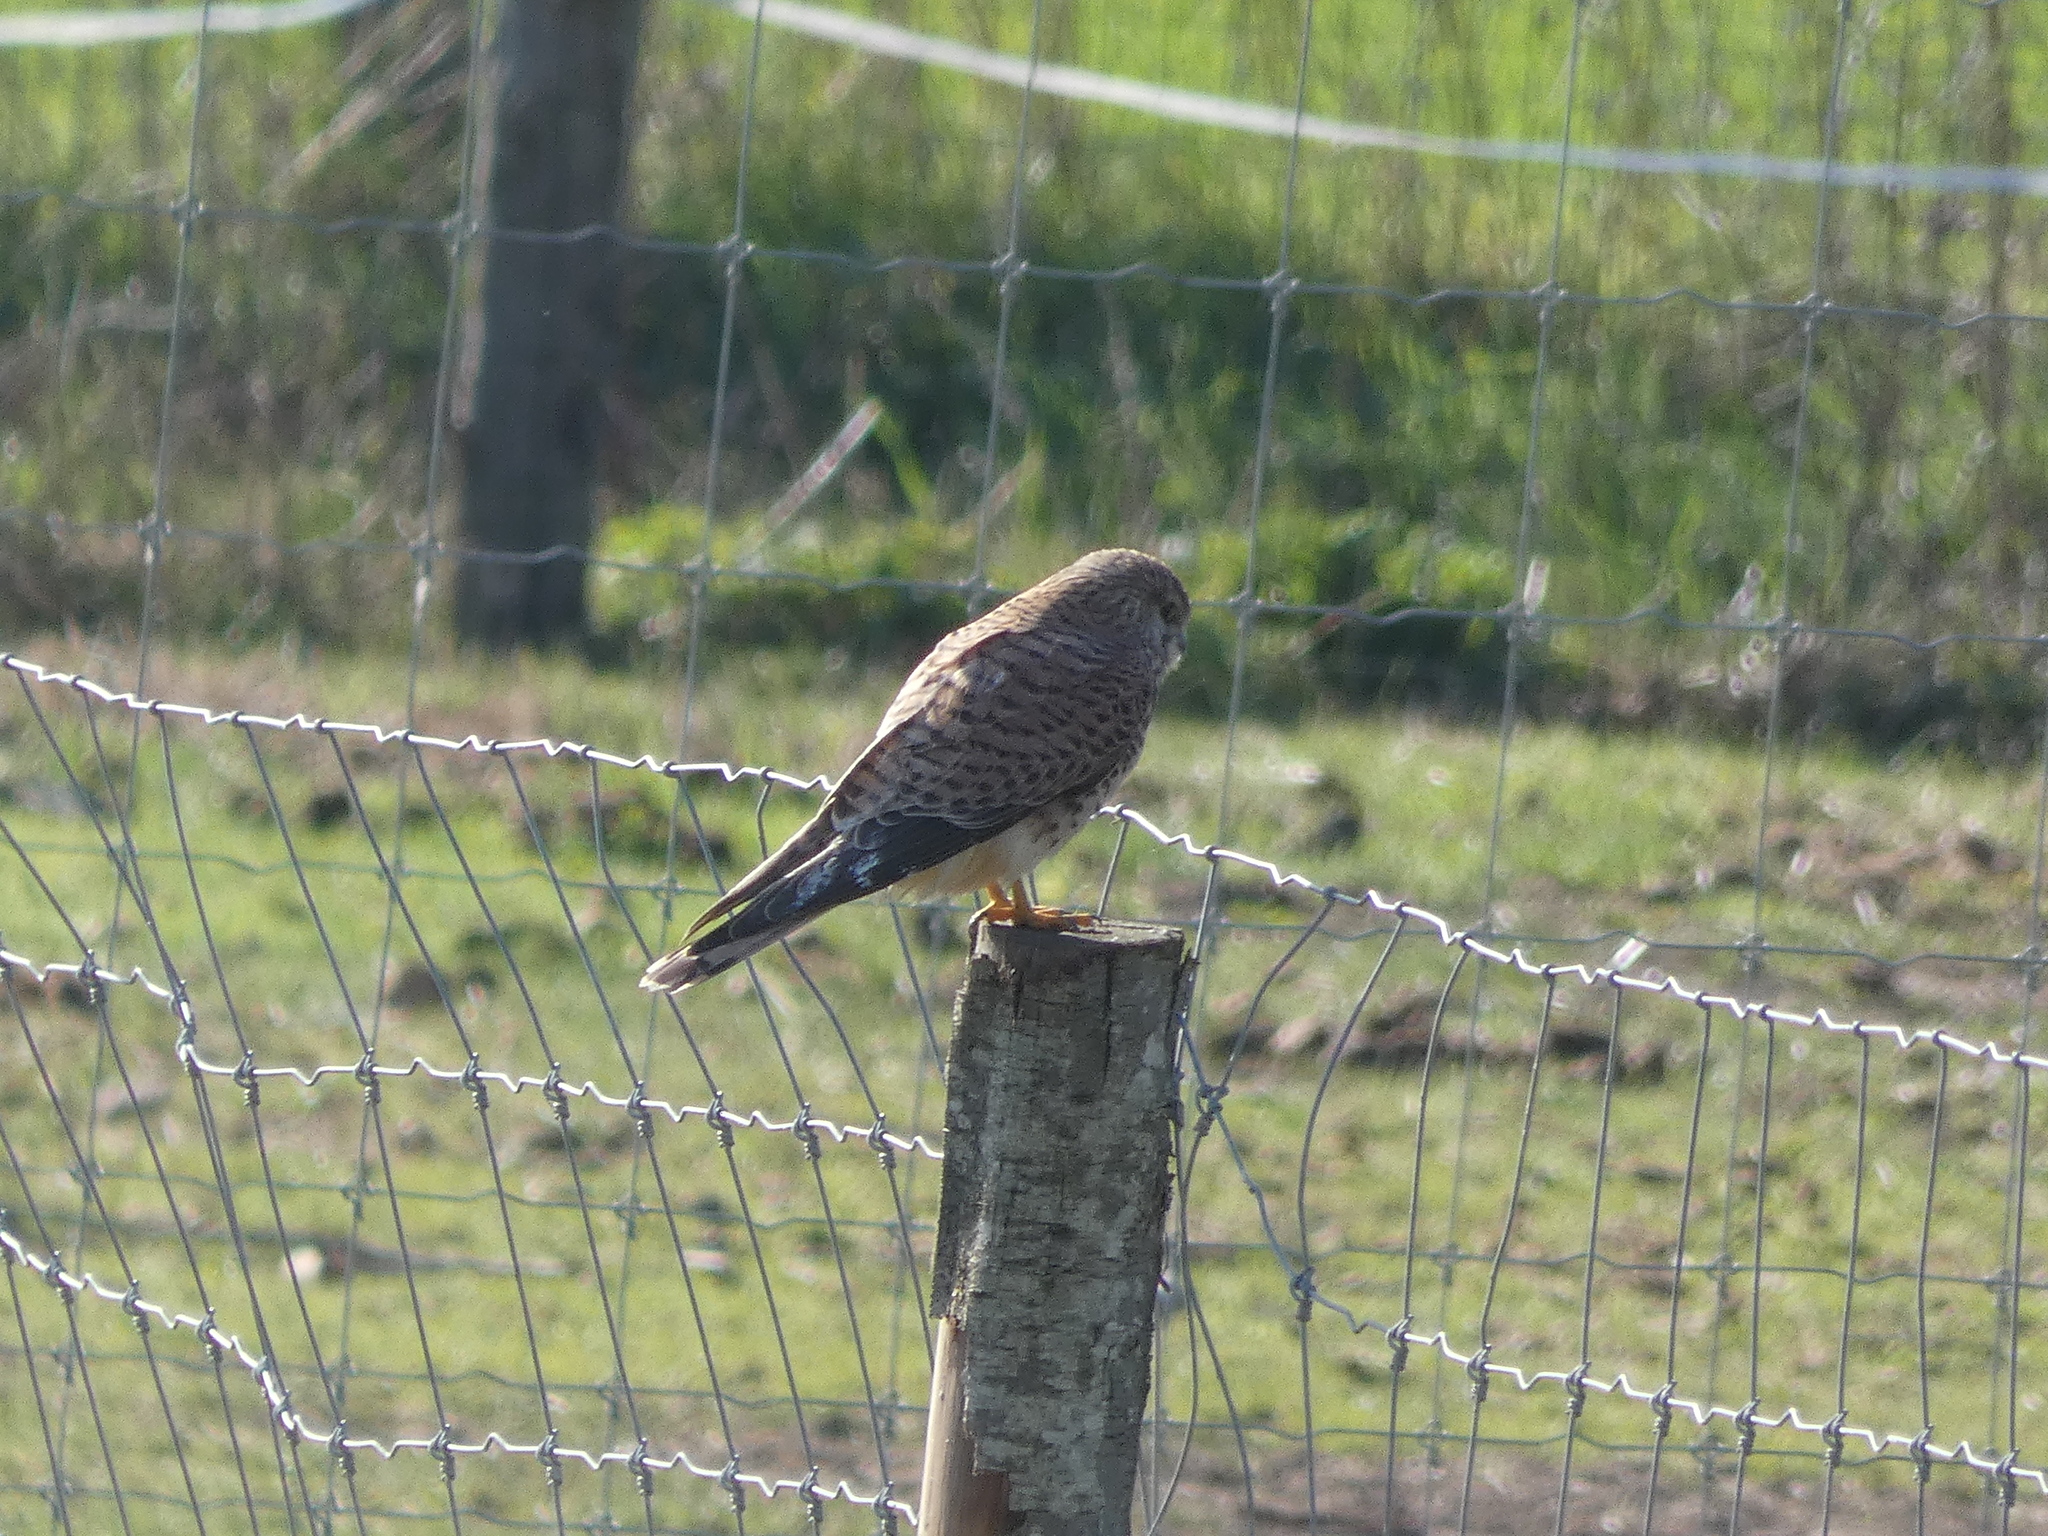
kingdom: Animalia
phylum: Chordata
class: Aves
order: Falconiformes
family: Falconidae
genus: Falco
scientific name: Falco tinnunculus
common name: Common kestrel
